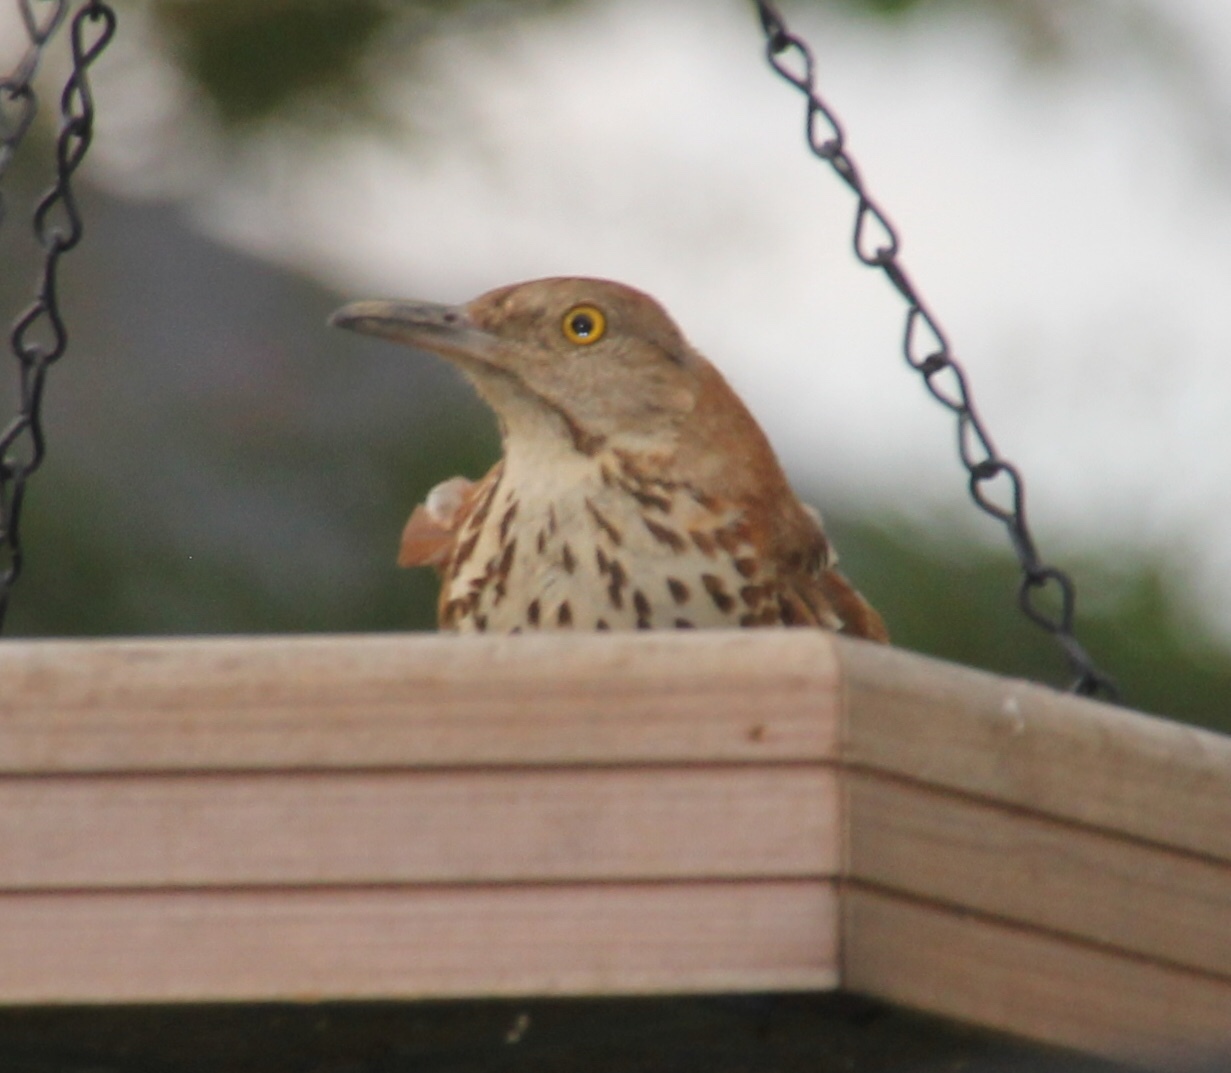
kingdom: Animalia
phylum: Chordata
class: Aves
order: Passeriformes
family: Mimidae
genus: Toxostoma
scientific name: Toxostoma rufum
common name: Brown thrasher
